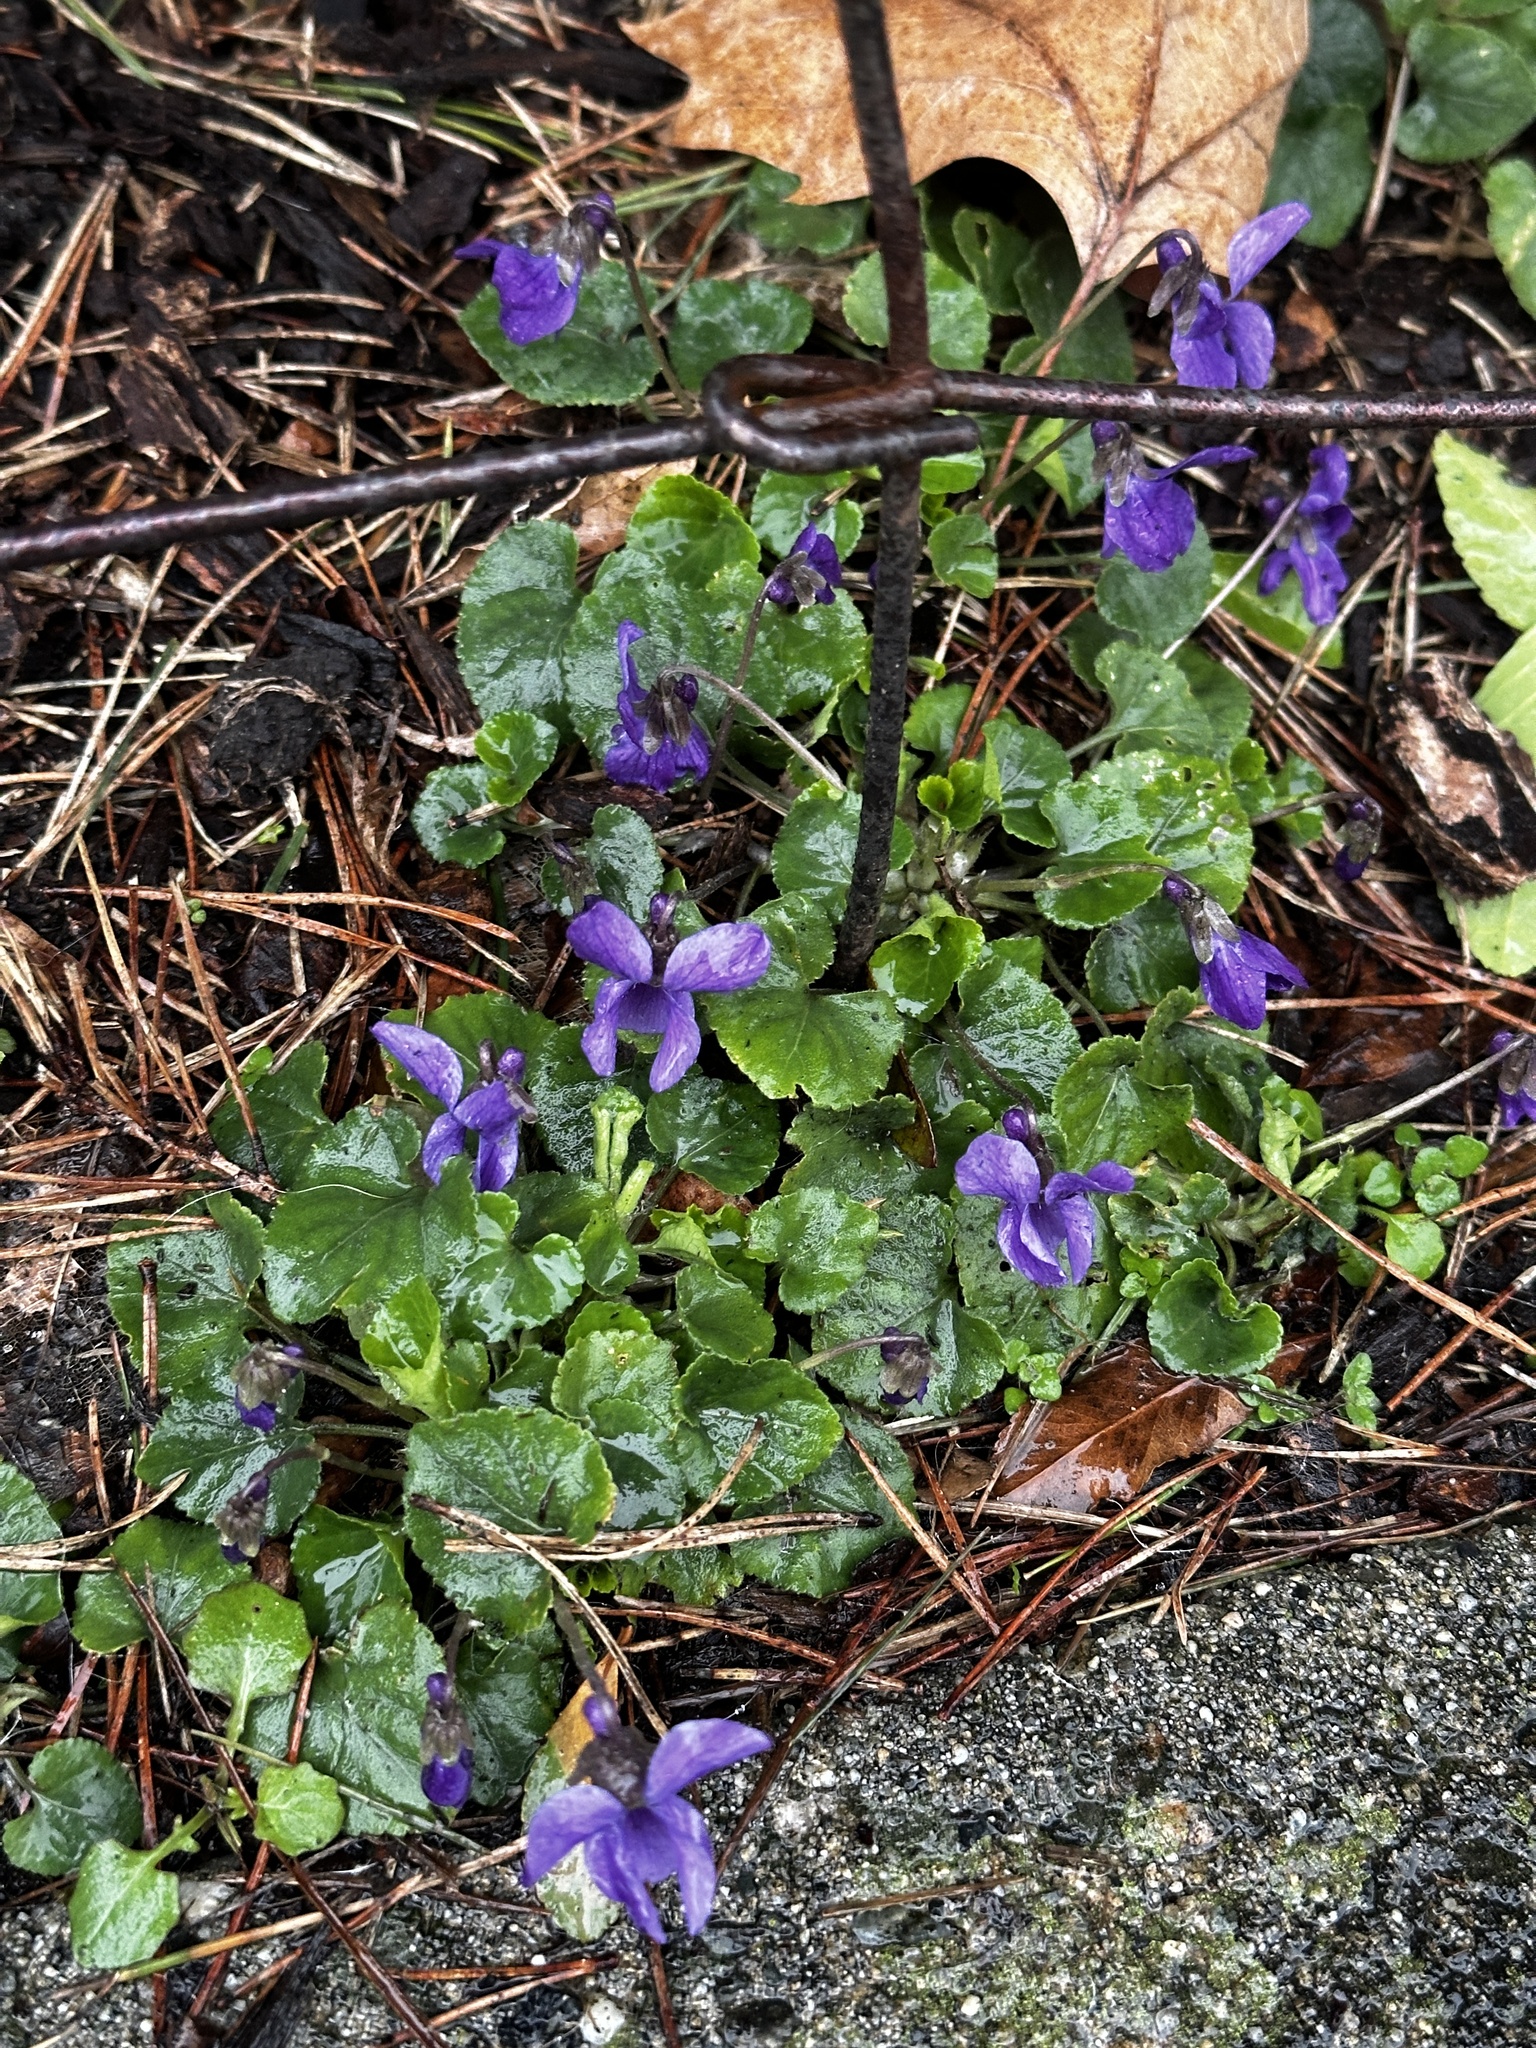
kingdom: Plantae
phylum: Tracheophyta
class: Magnoliopsida
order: Malpighiales
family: Violaceae
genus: Viola
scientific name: Viola odorata
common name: Sweet violet
